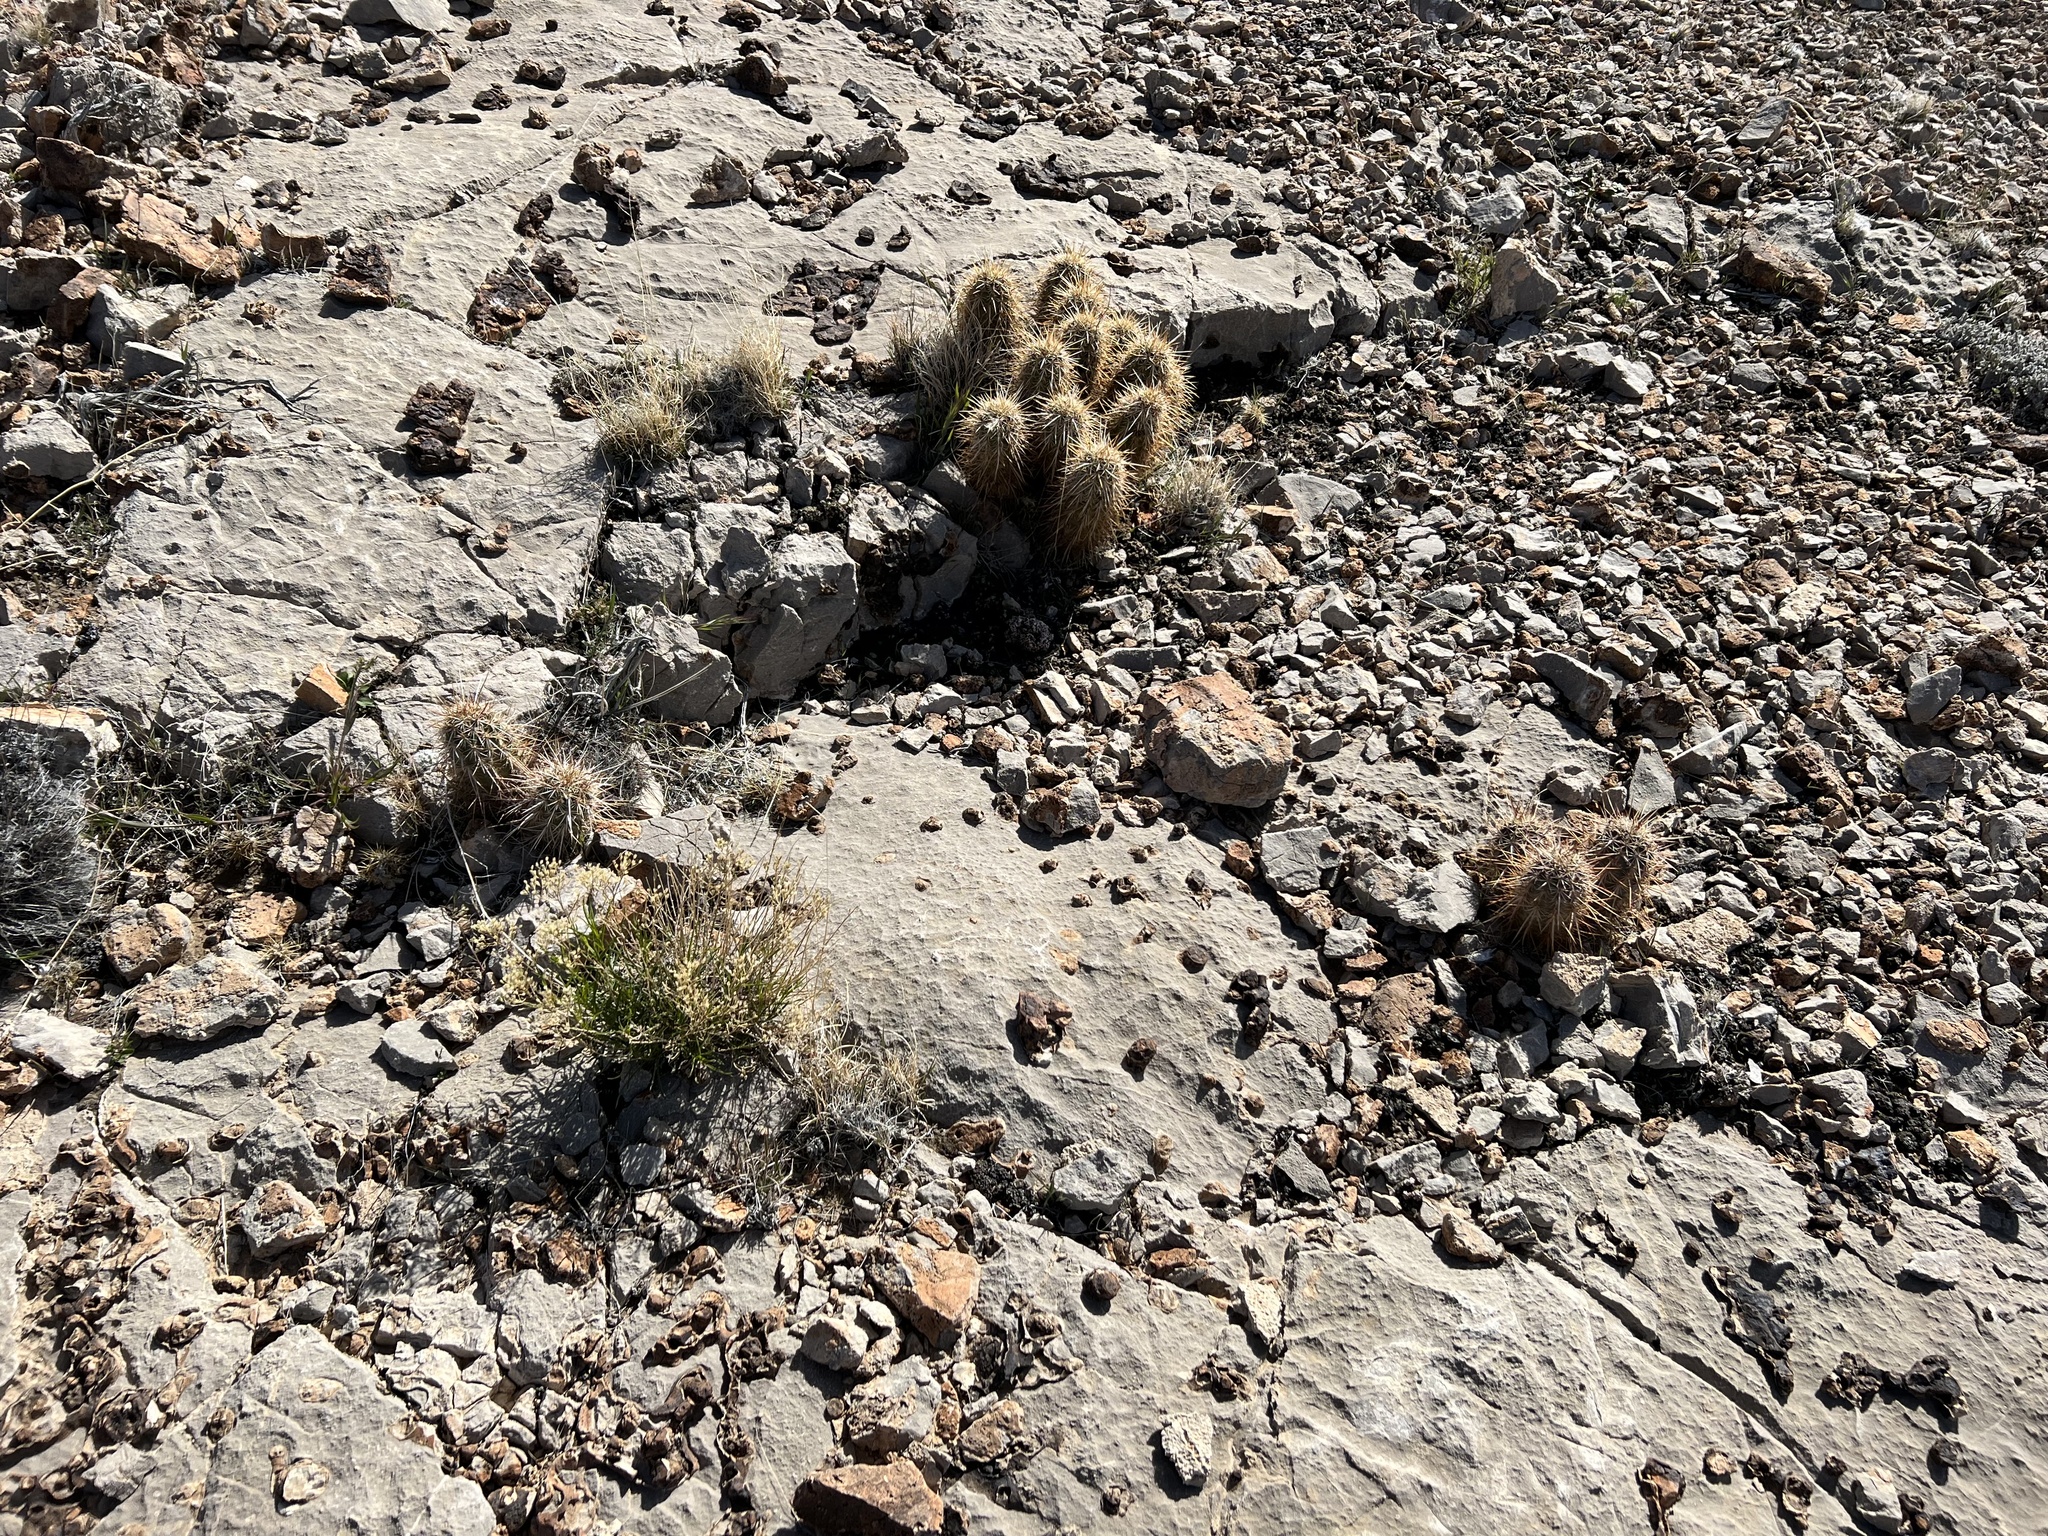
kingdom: Plantae
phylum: Tracheophyta
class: Magnoliopsida
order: Caryophyllales
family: Cactaceae
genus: Echinocereus
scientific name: Echinocereus engelmannii
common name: Engelmann's hedgehog cactus
